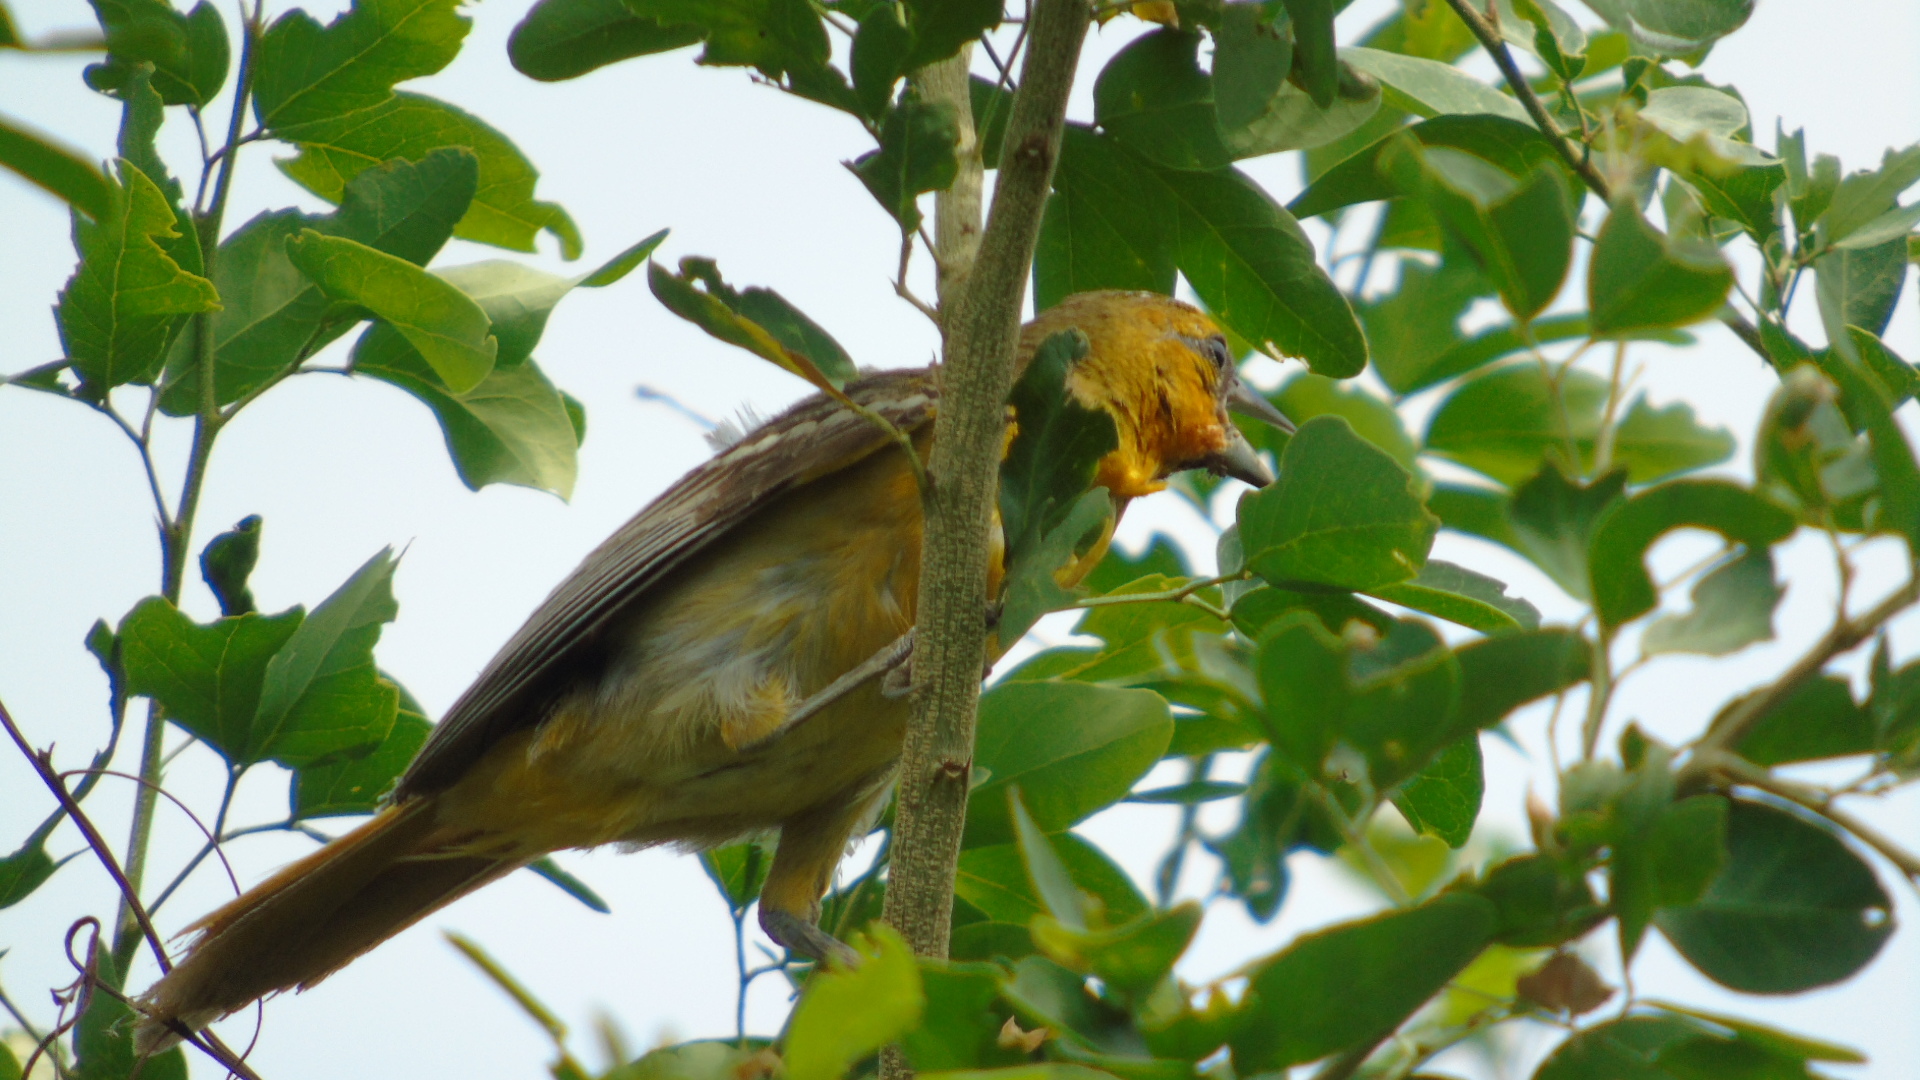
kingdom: Animalia
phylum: Chordata
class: Aves
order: Passeriformes
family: Icteridae
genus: Icterus
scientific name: Icterus bullockii
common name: Bullock's oriole
